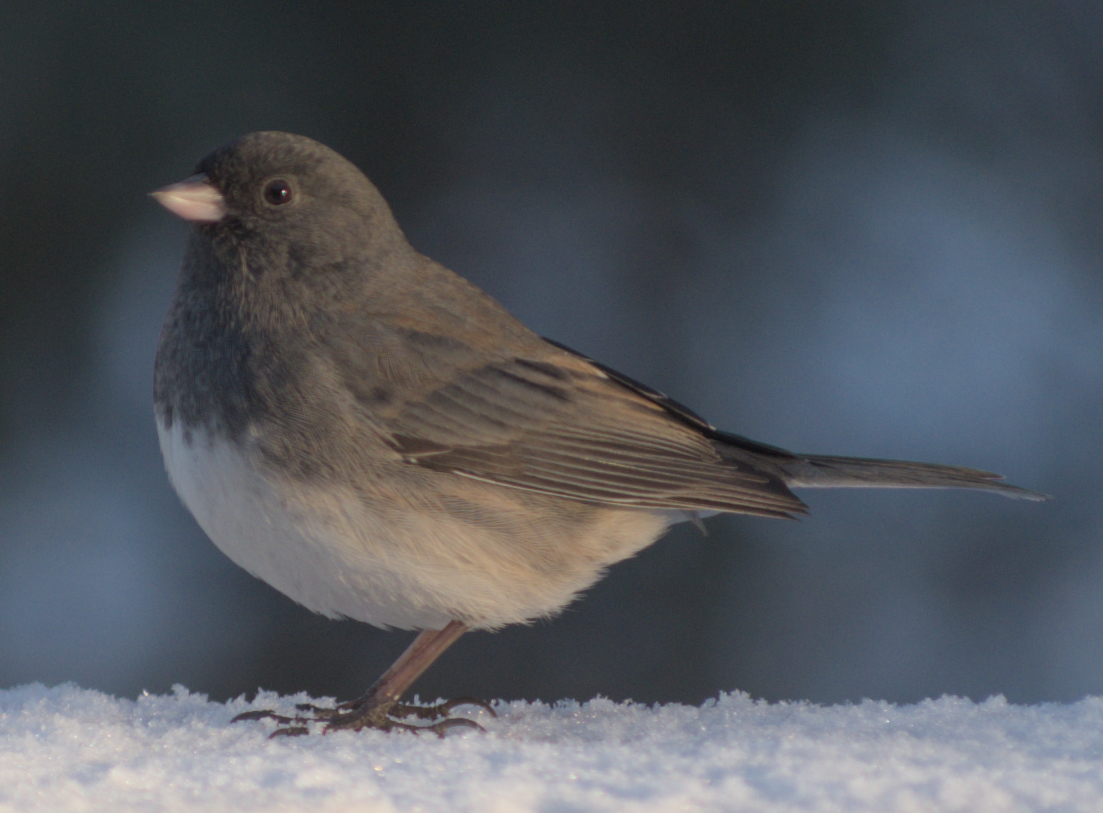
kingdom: Animalia
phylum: Chordata
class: Aves
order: Passeriformes
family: Passerellidae
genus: Junco
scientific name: Junco hyemalis
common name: Dark-eyed junco
